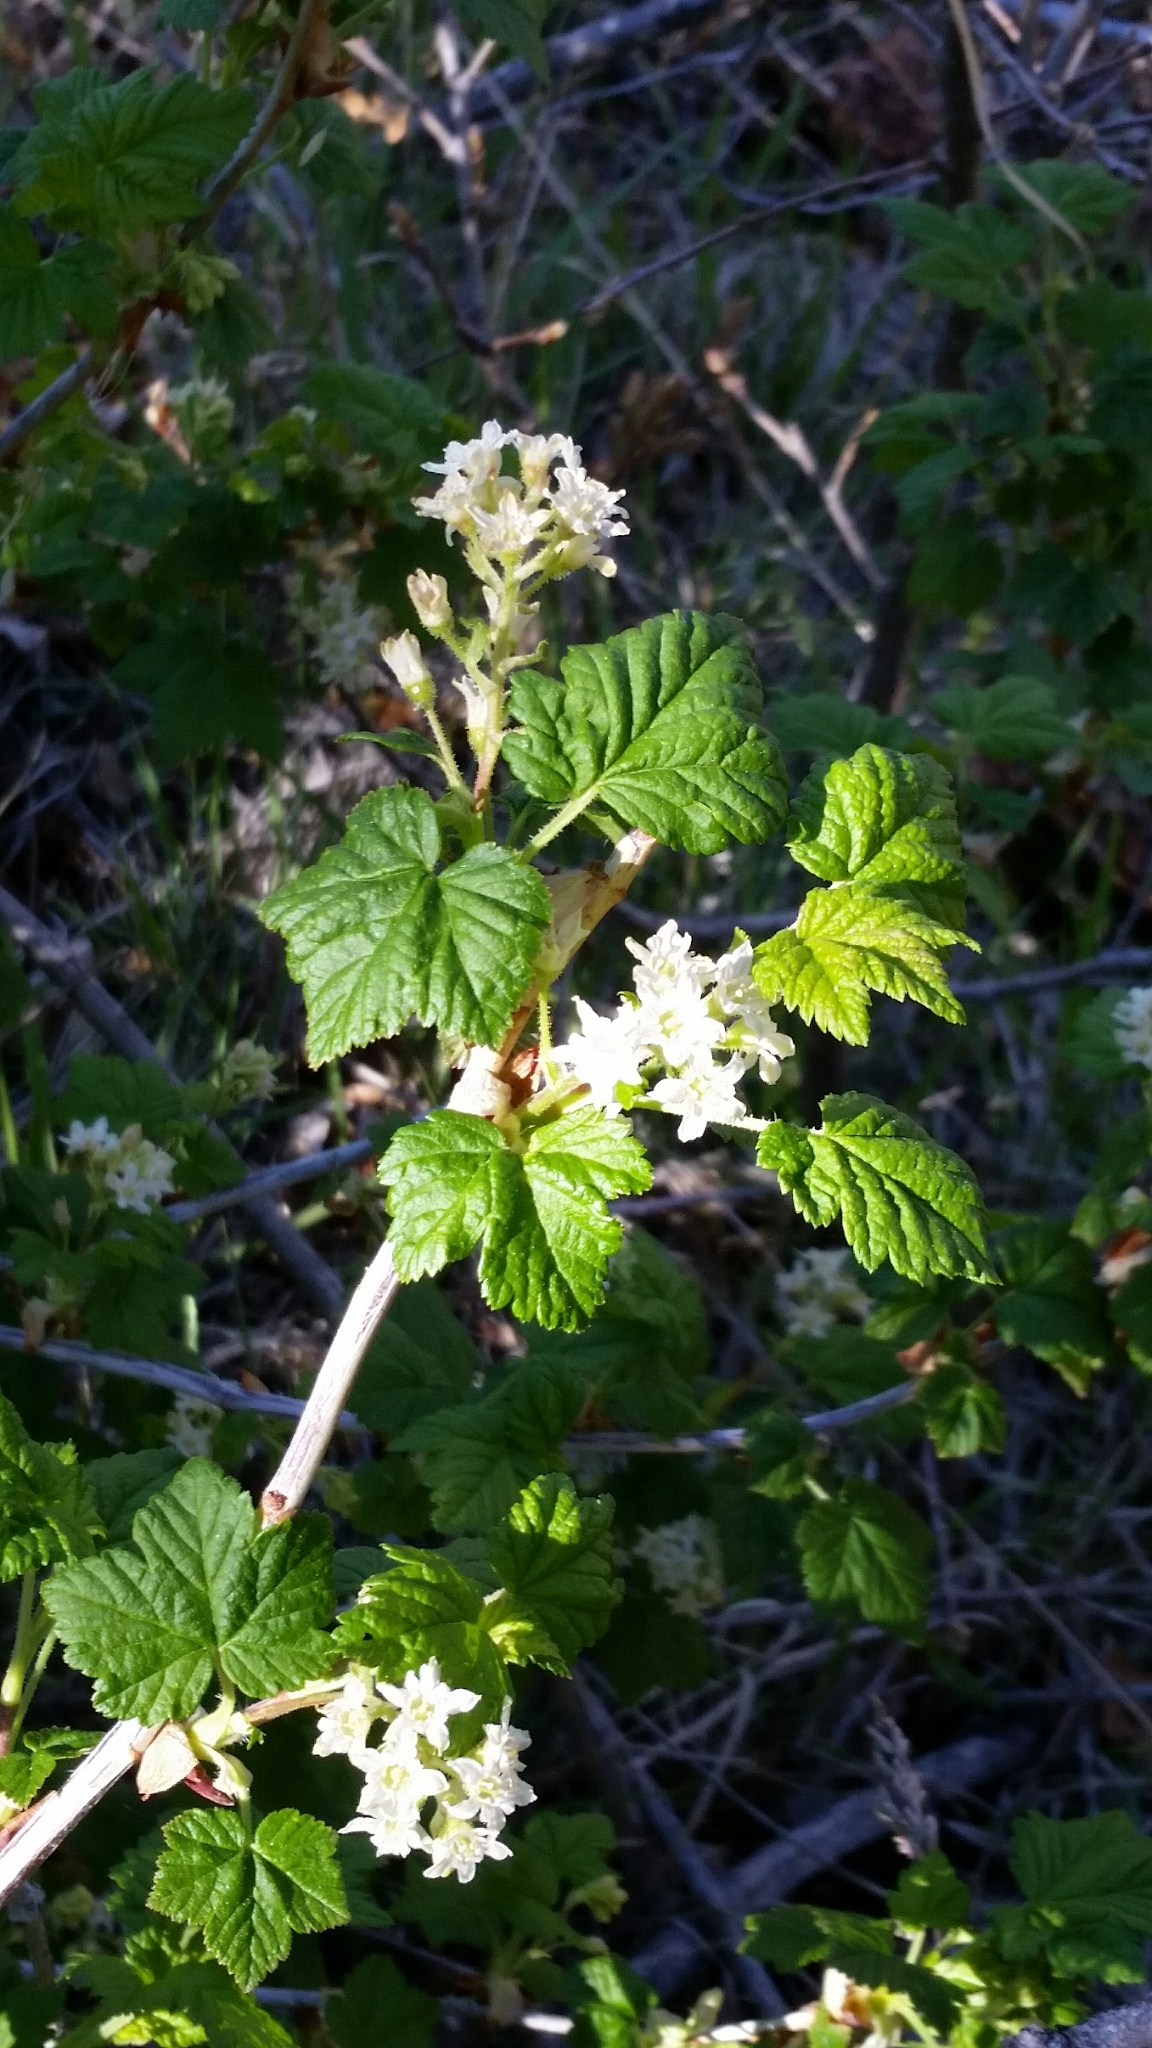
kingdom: Plantae
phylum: Tracheophyta
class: Magnoliopsida
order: Saxifragales
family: Grossulariaceae
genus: Ribes
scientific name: Ribes wolfii
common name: Rothrock currant
